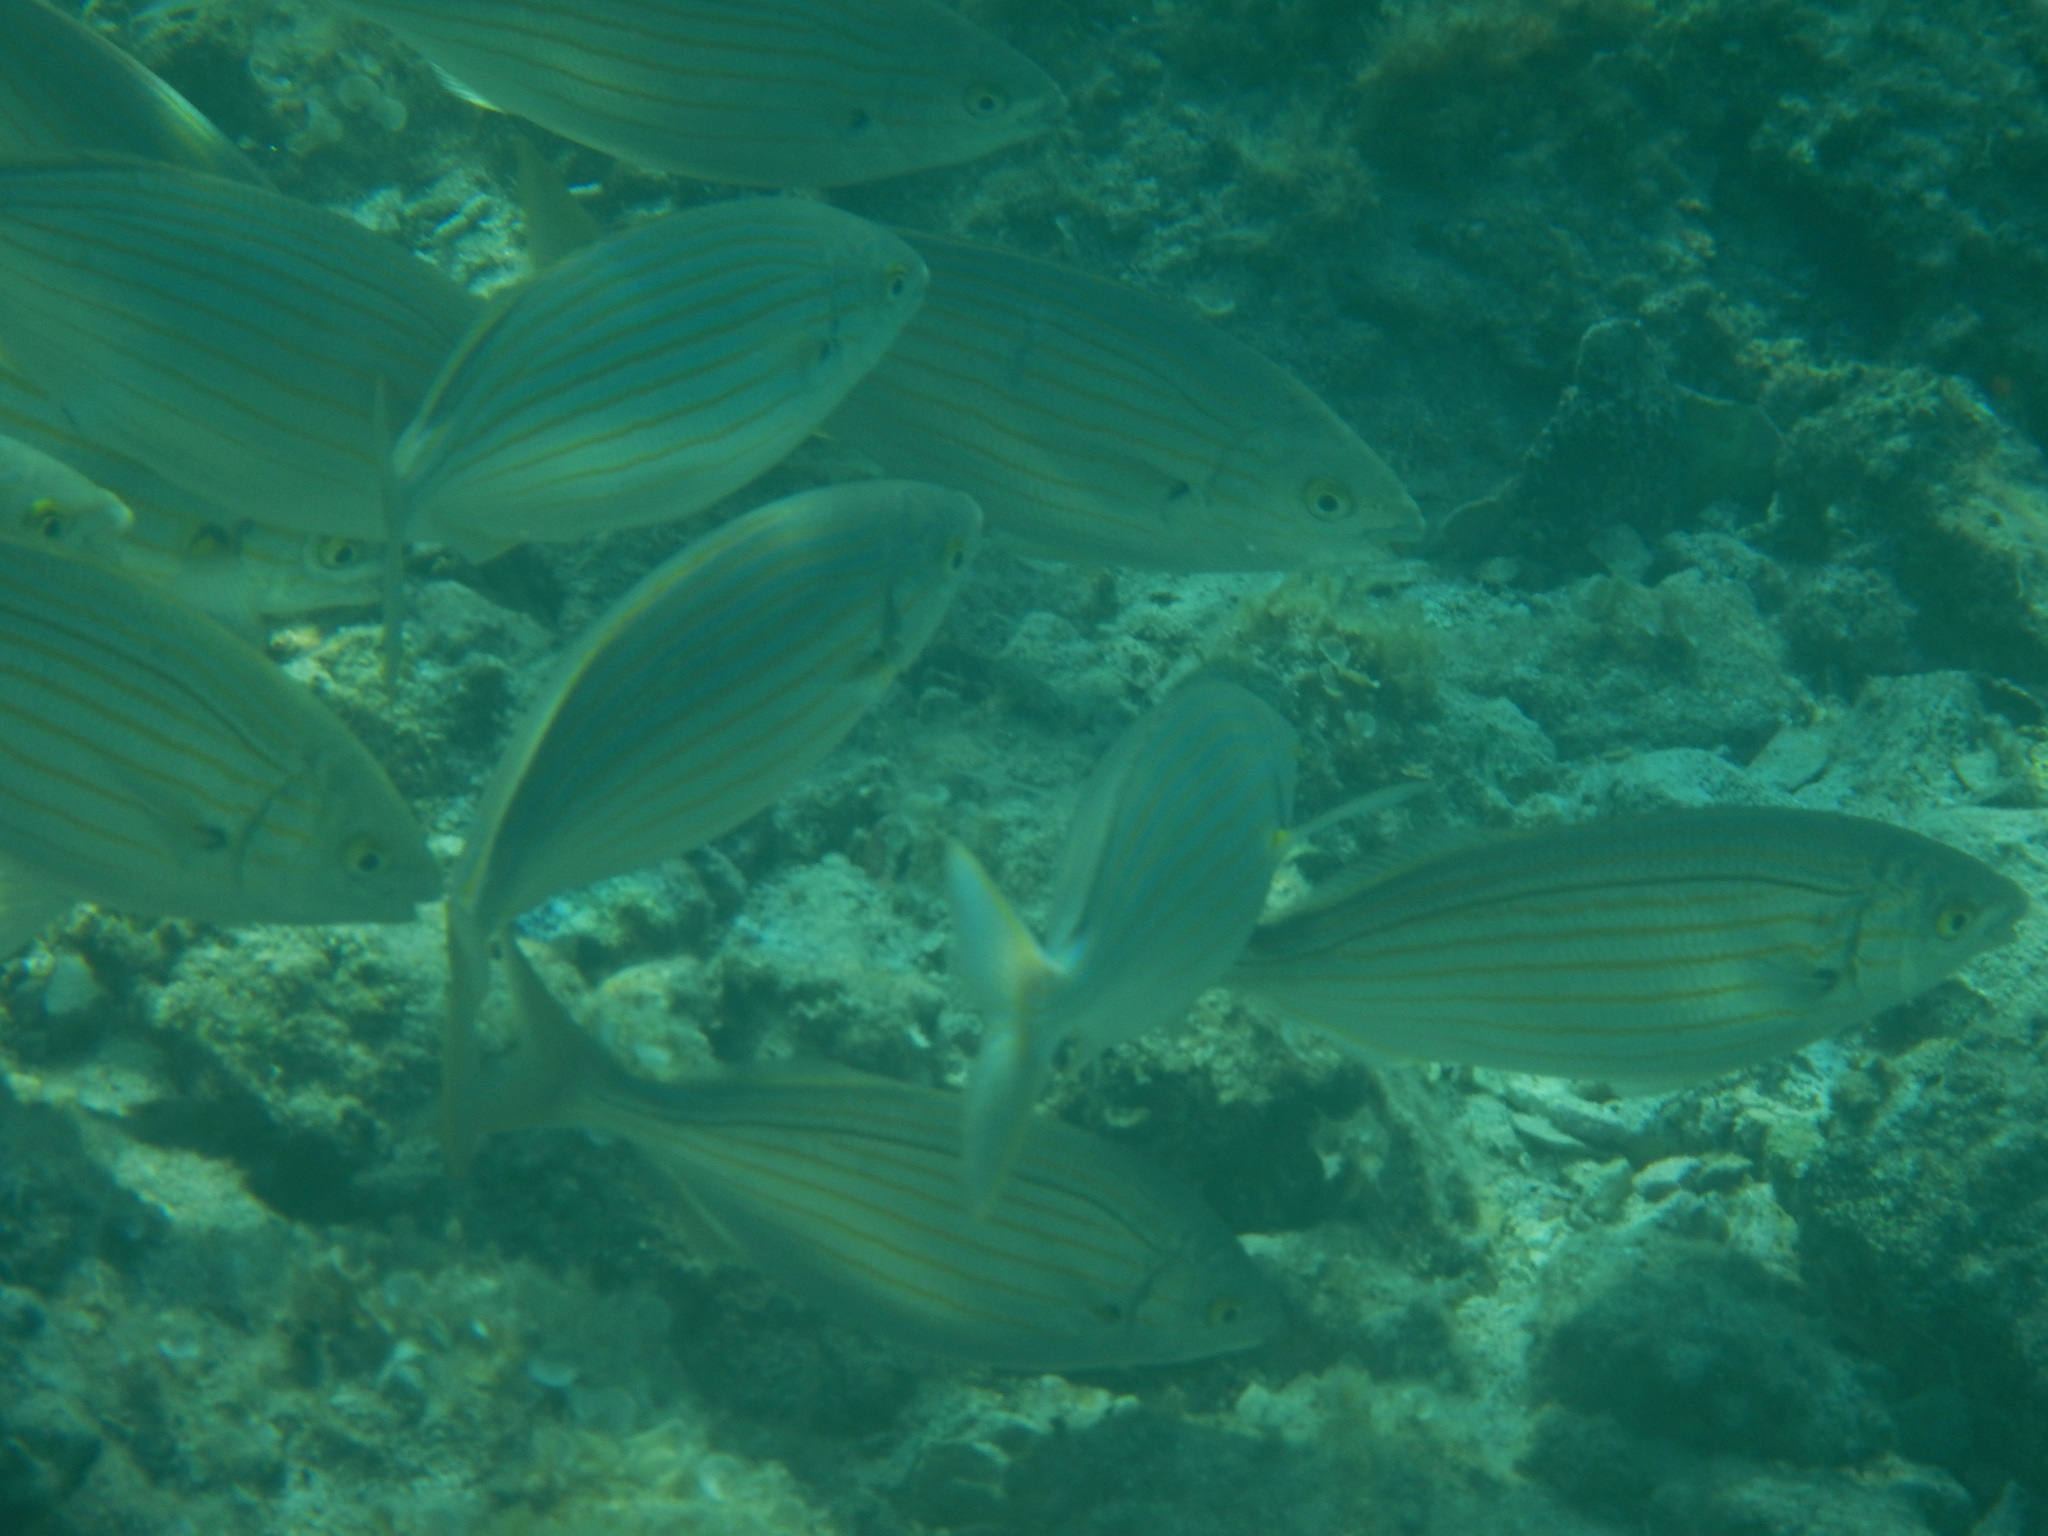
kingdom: Animalia
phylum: Chordata
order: Perciformes
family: Sparidae
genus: Sarpa
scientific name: Sarpa salpa
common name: Salema
